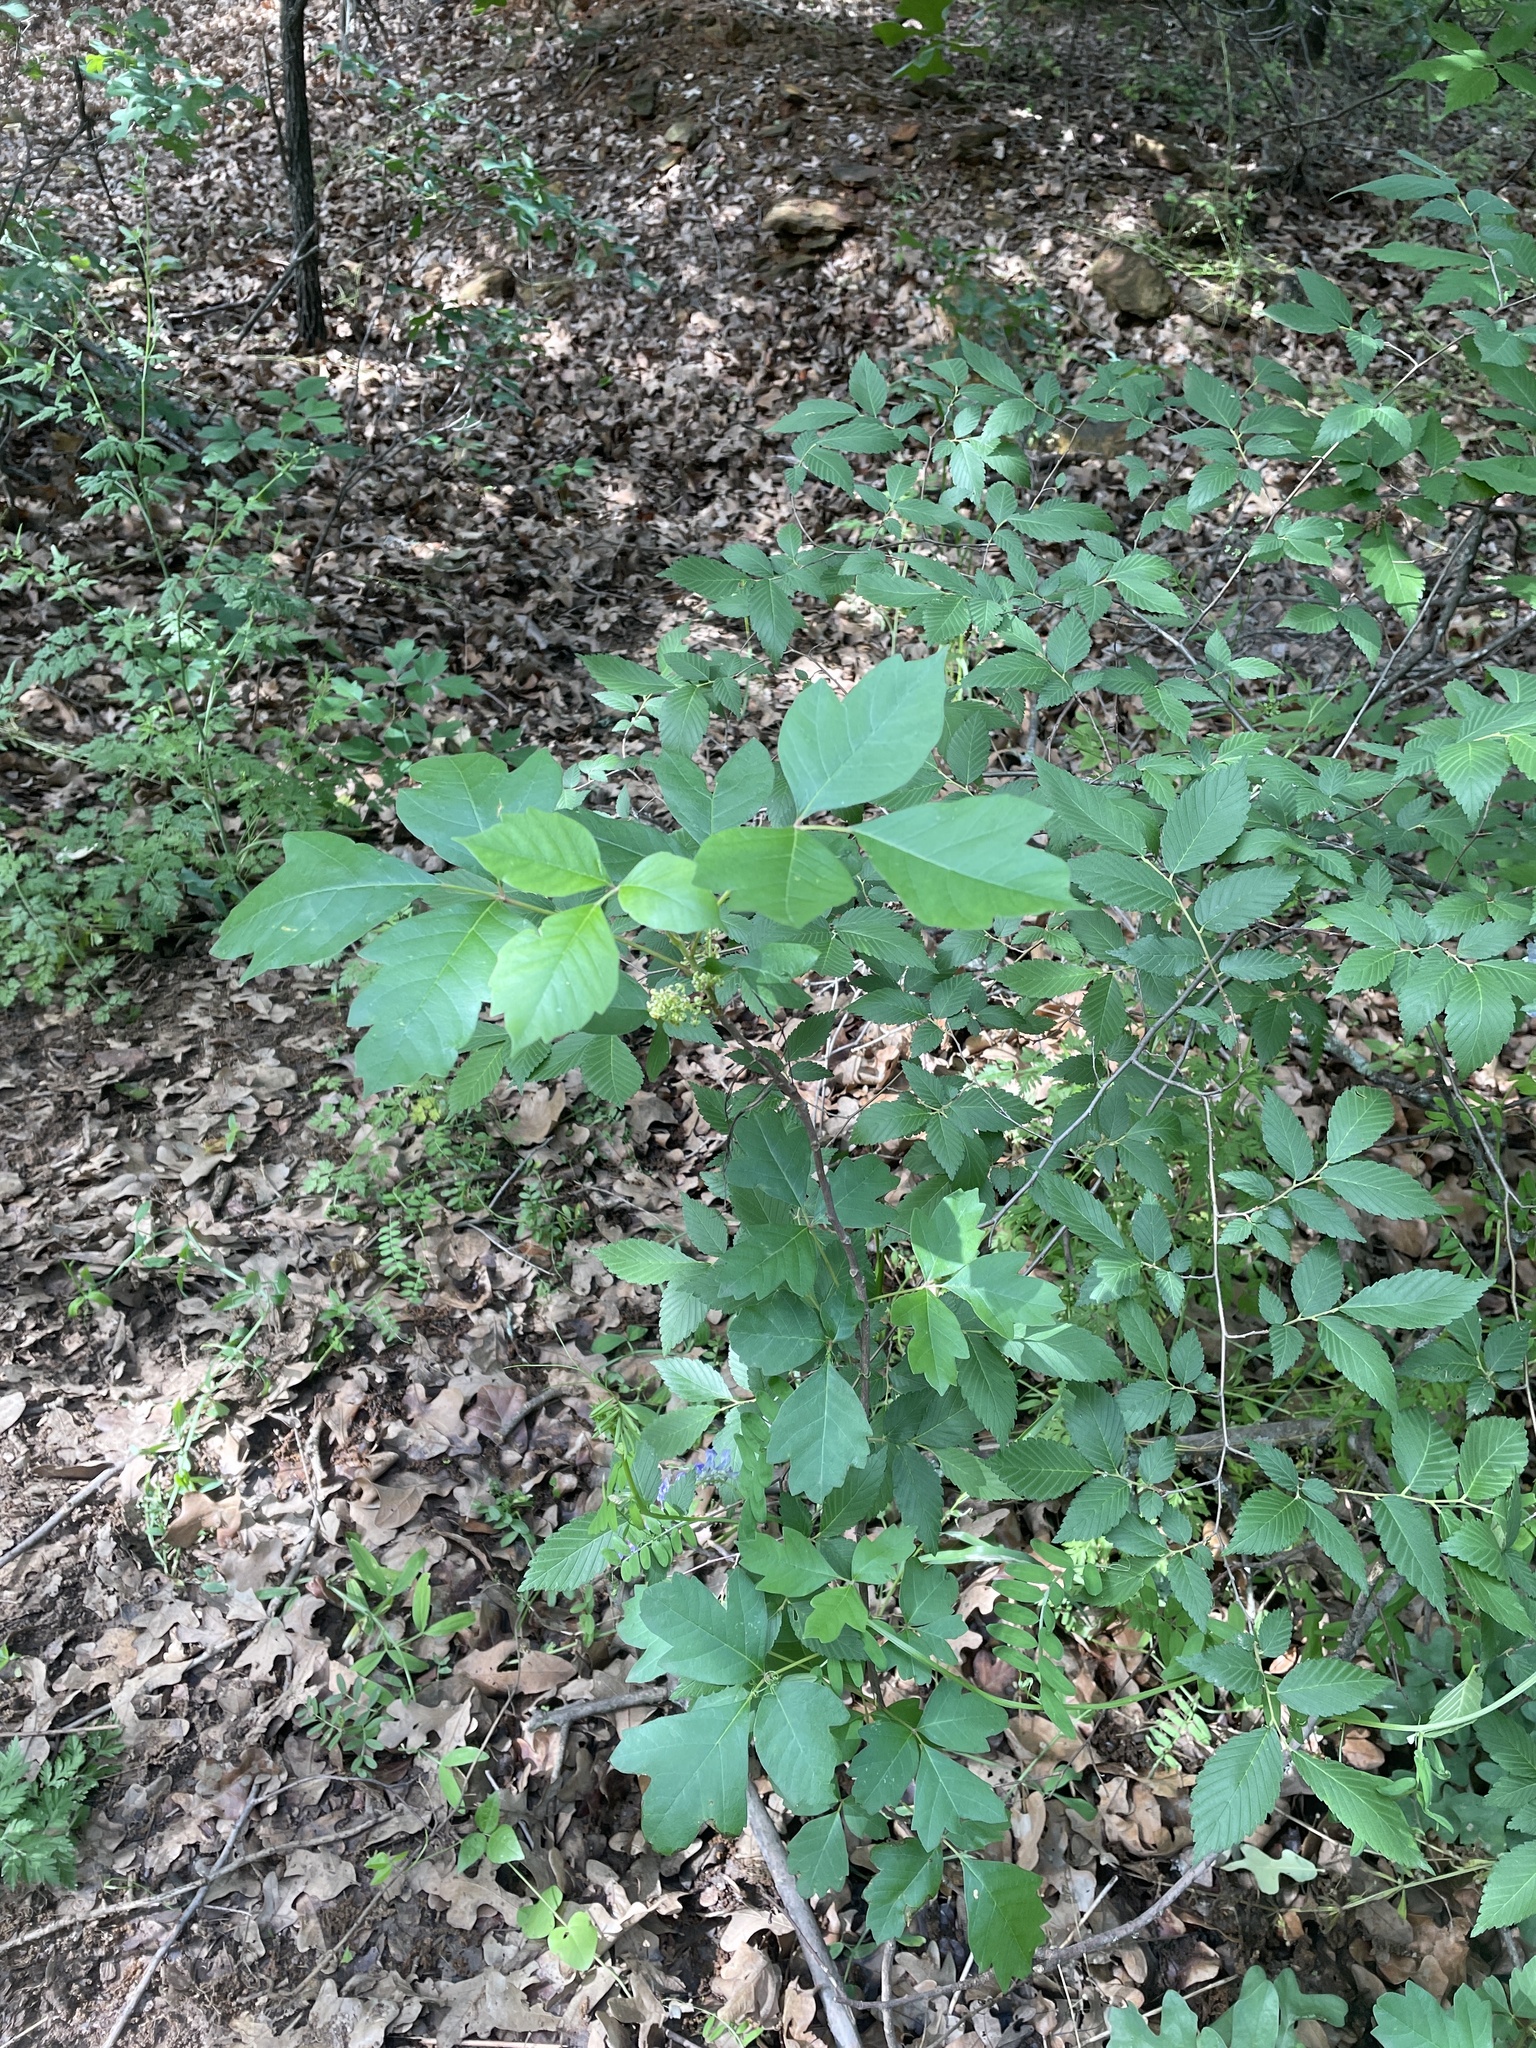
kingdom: Plantae
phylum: Tracheophyta
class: Magnoliopsida
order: Sapindales
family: Anacardiaceae
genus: Toxicodendron
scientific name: Toxicodendron radicans
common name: Poison ivy
